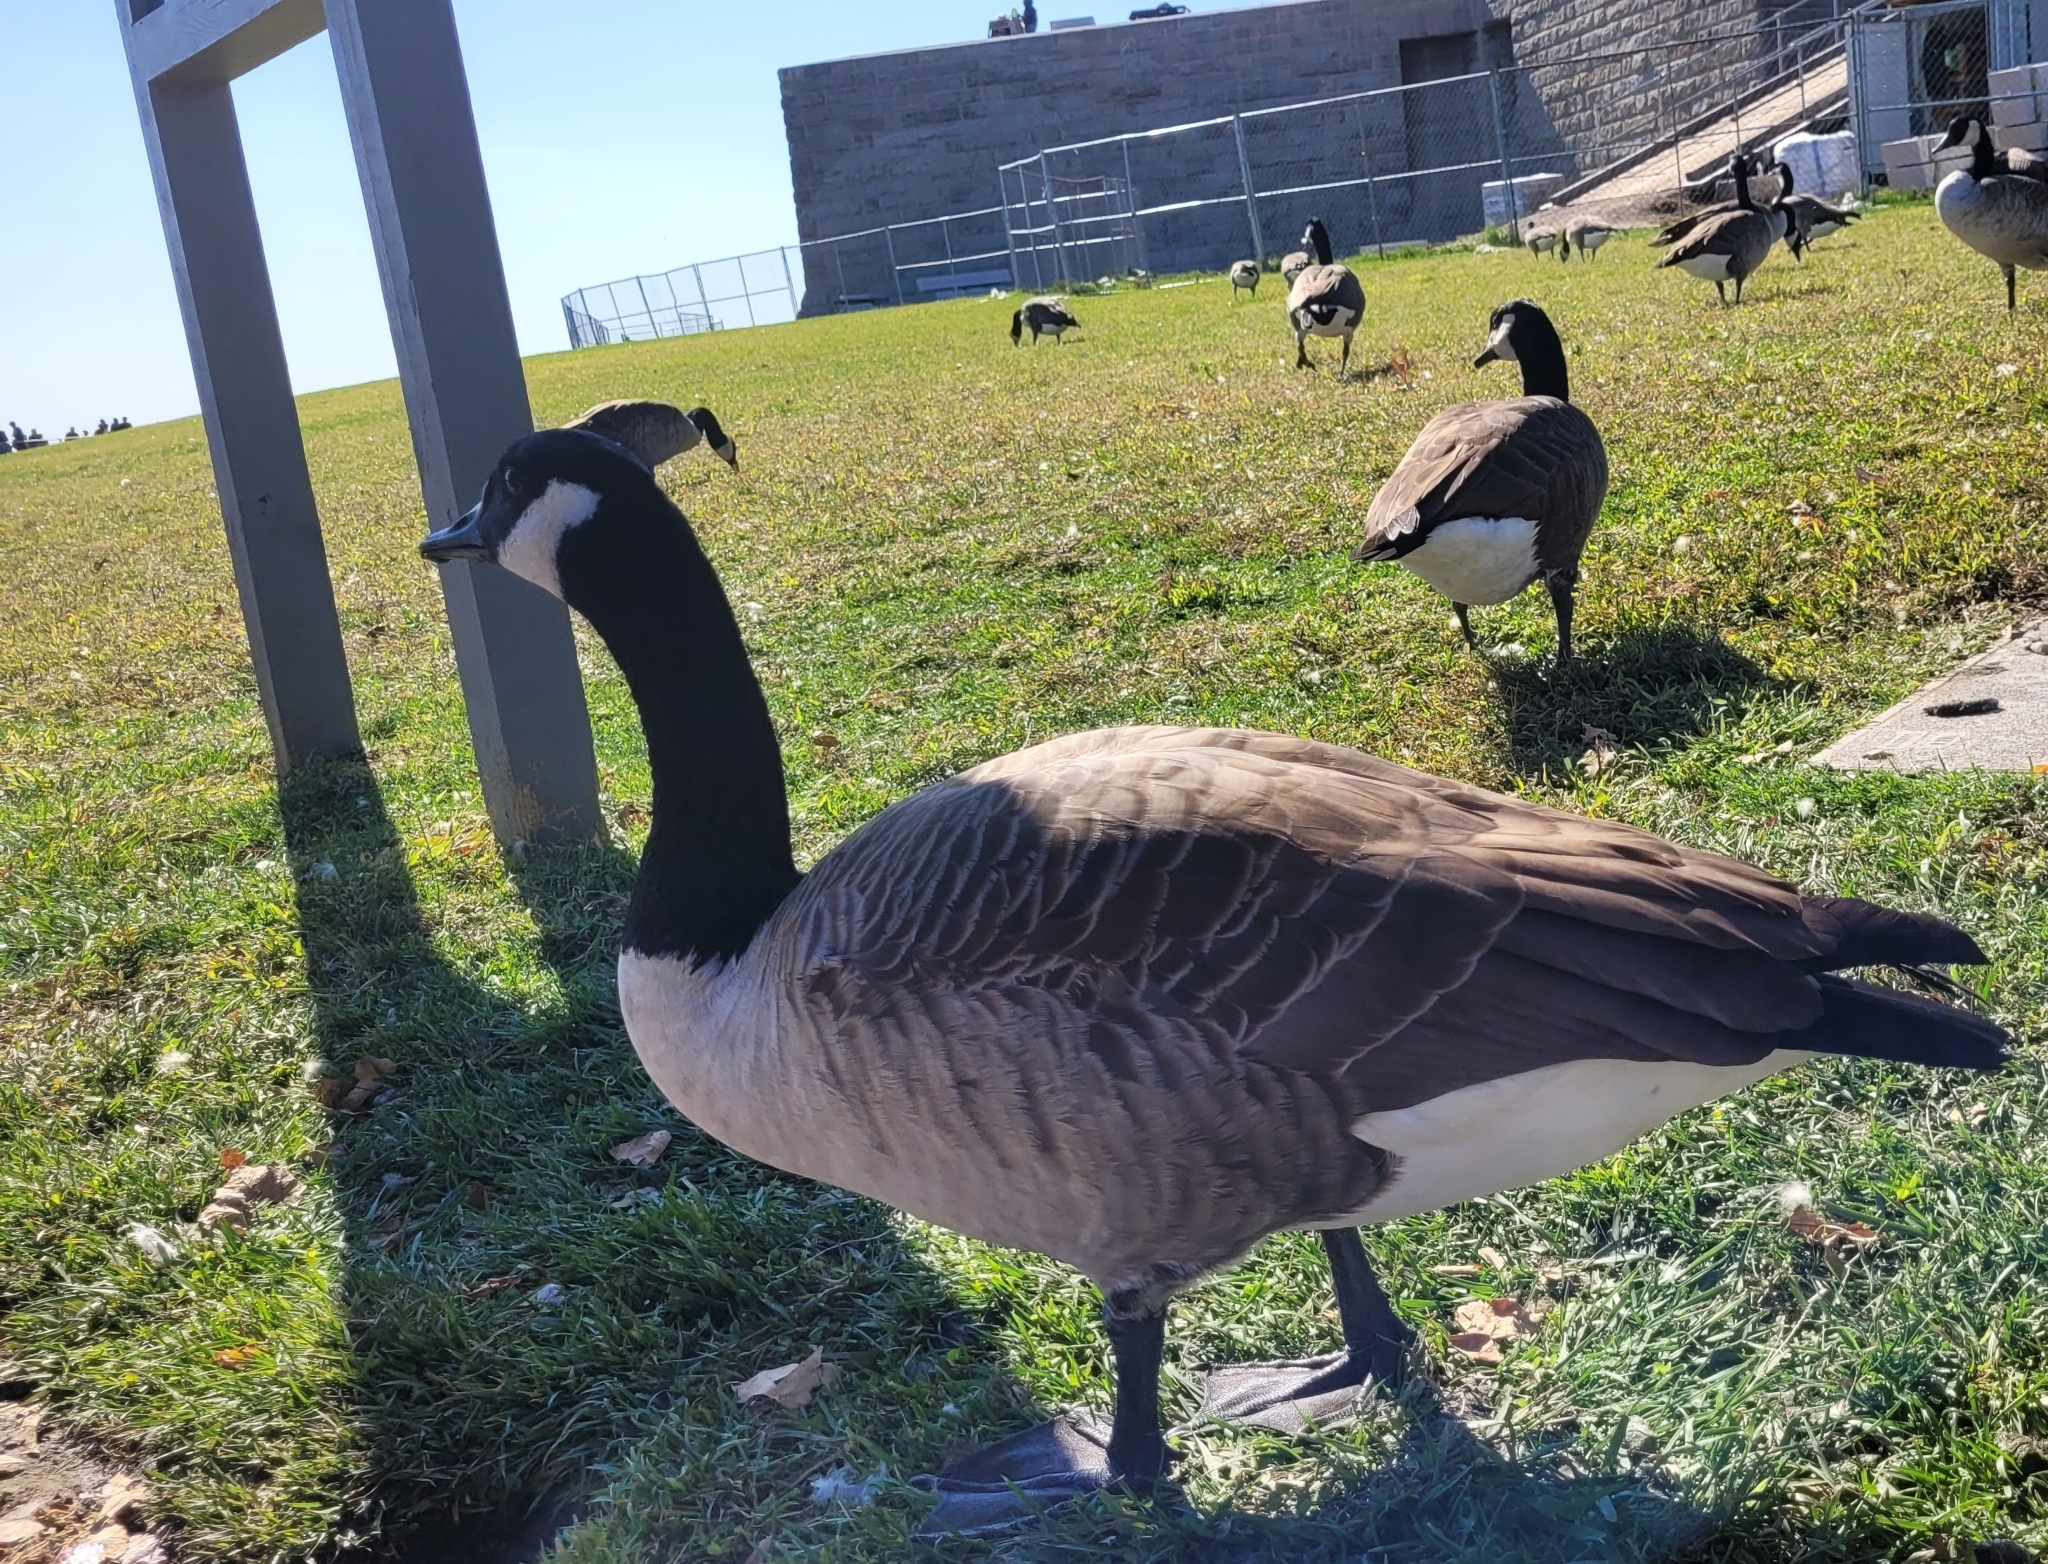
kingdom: Animalia
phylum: Chordata
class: Aves
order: Anseriformes
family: Anatidae
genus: Branta
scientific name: Branta canadensis
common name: Canada goose
